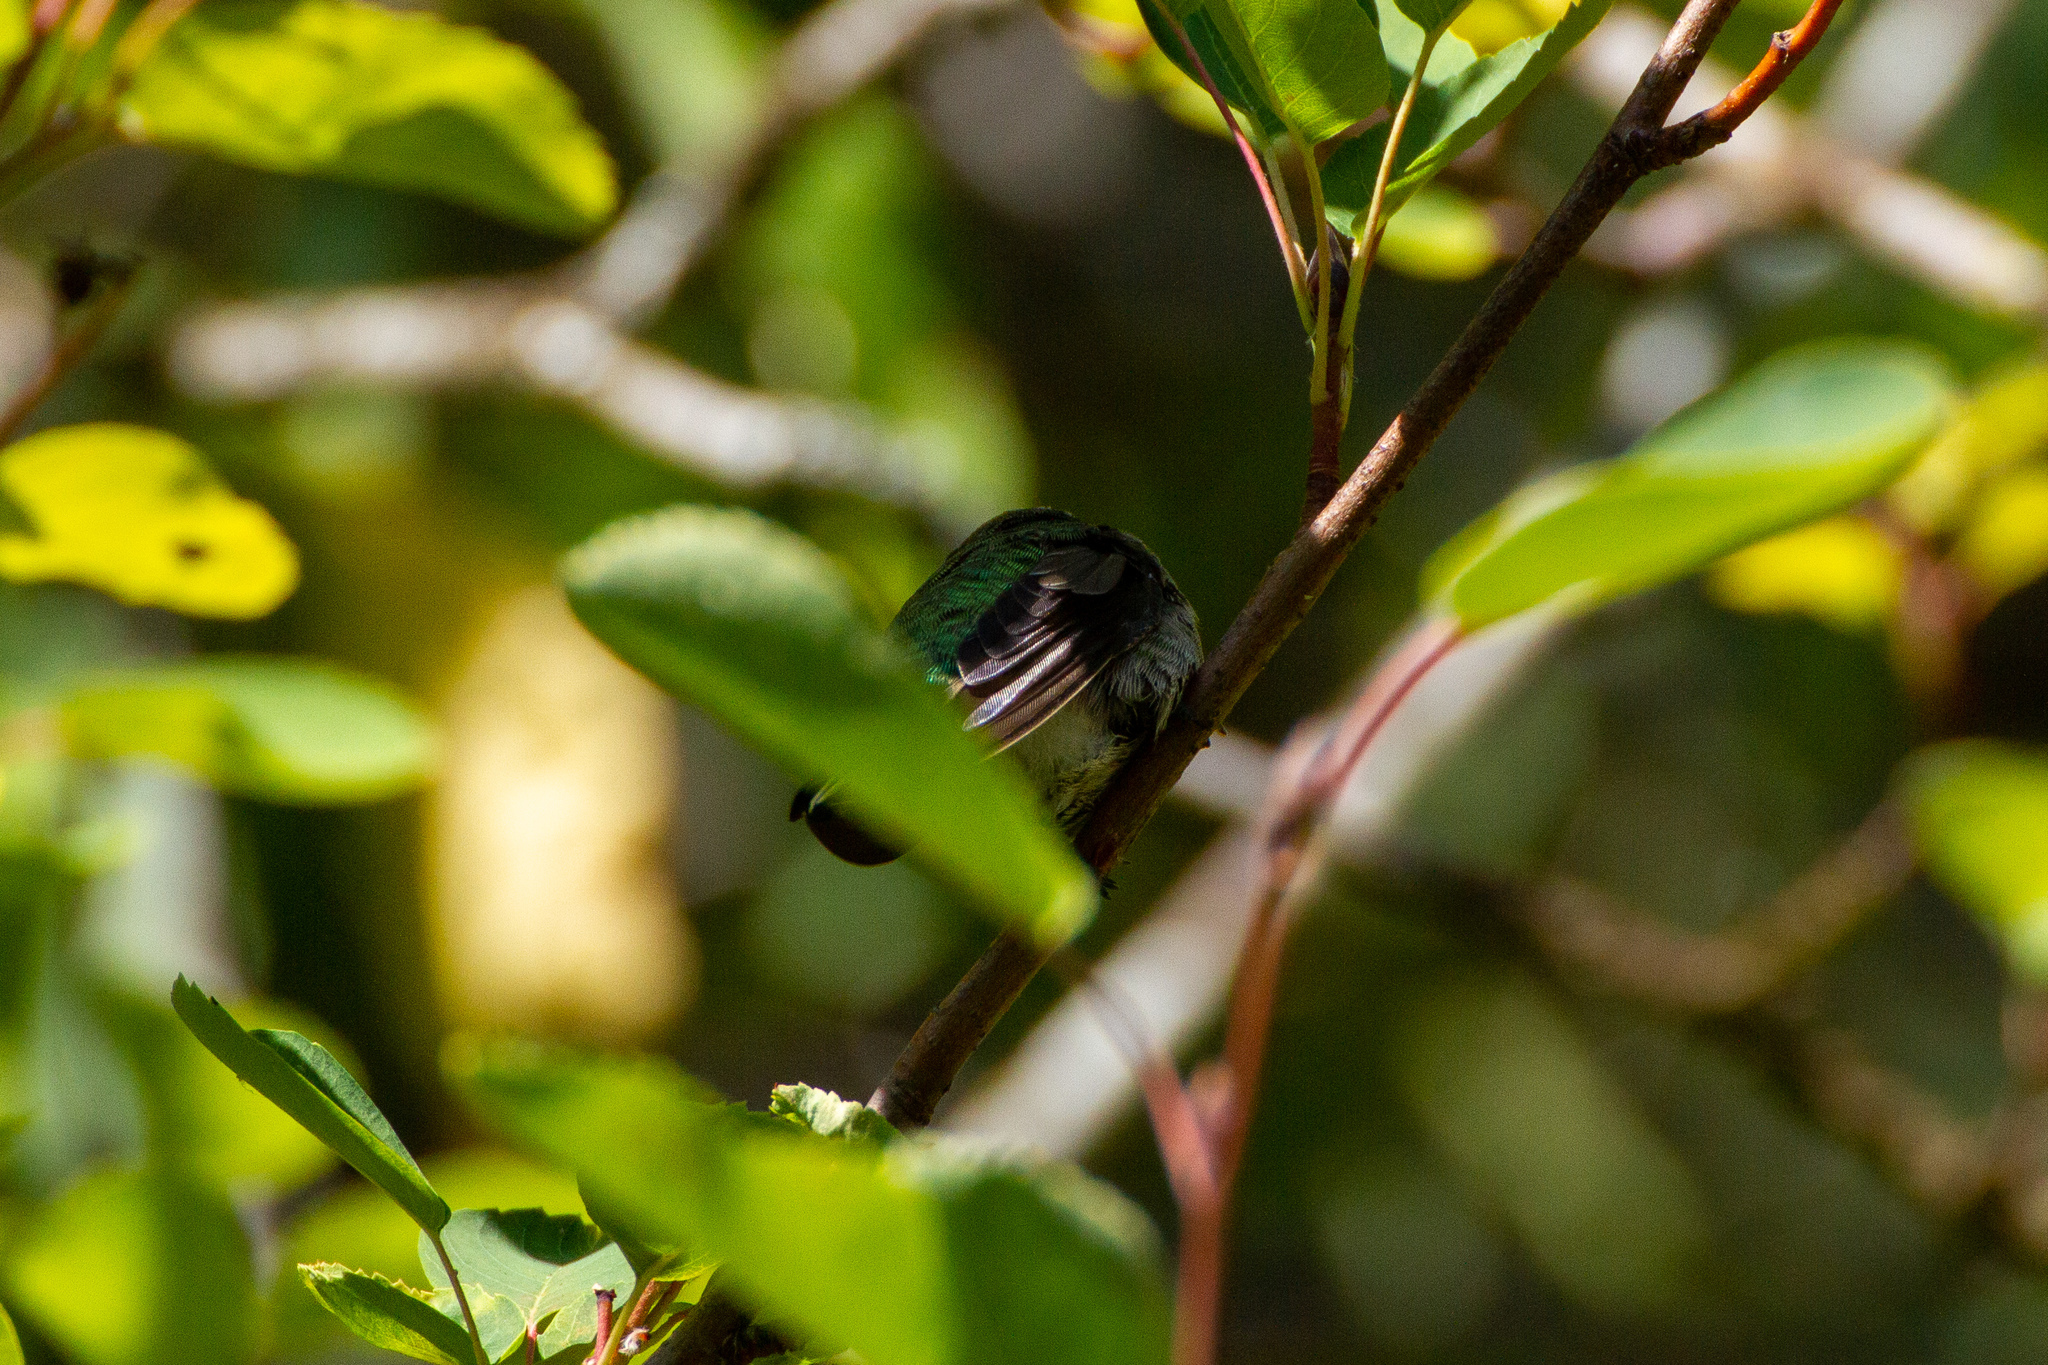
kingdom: Animalia
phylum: Chordata
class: Aves
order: Apodiformes
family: Trochilidae
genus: Calypte
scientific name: Calypte anna
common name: Anna's hummingbird
